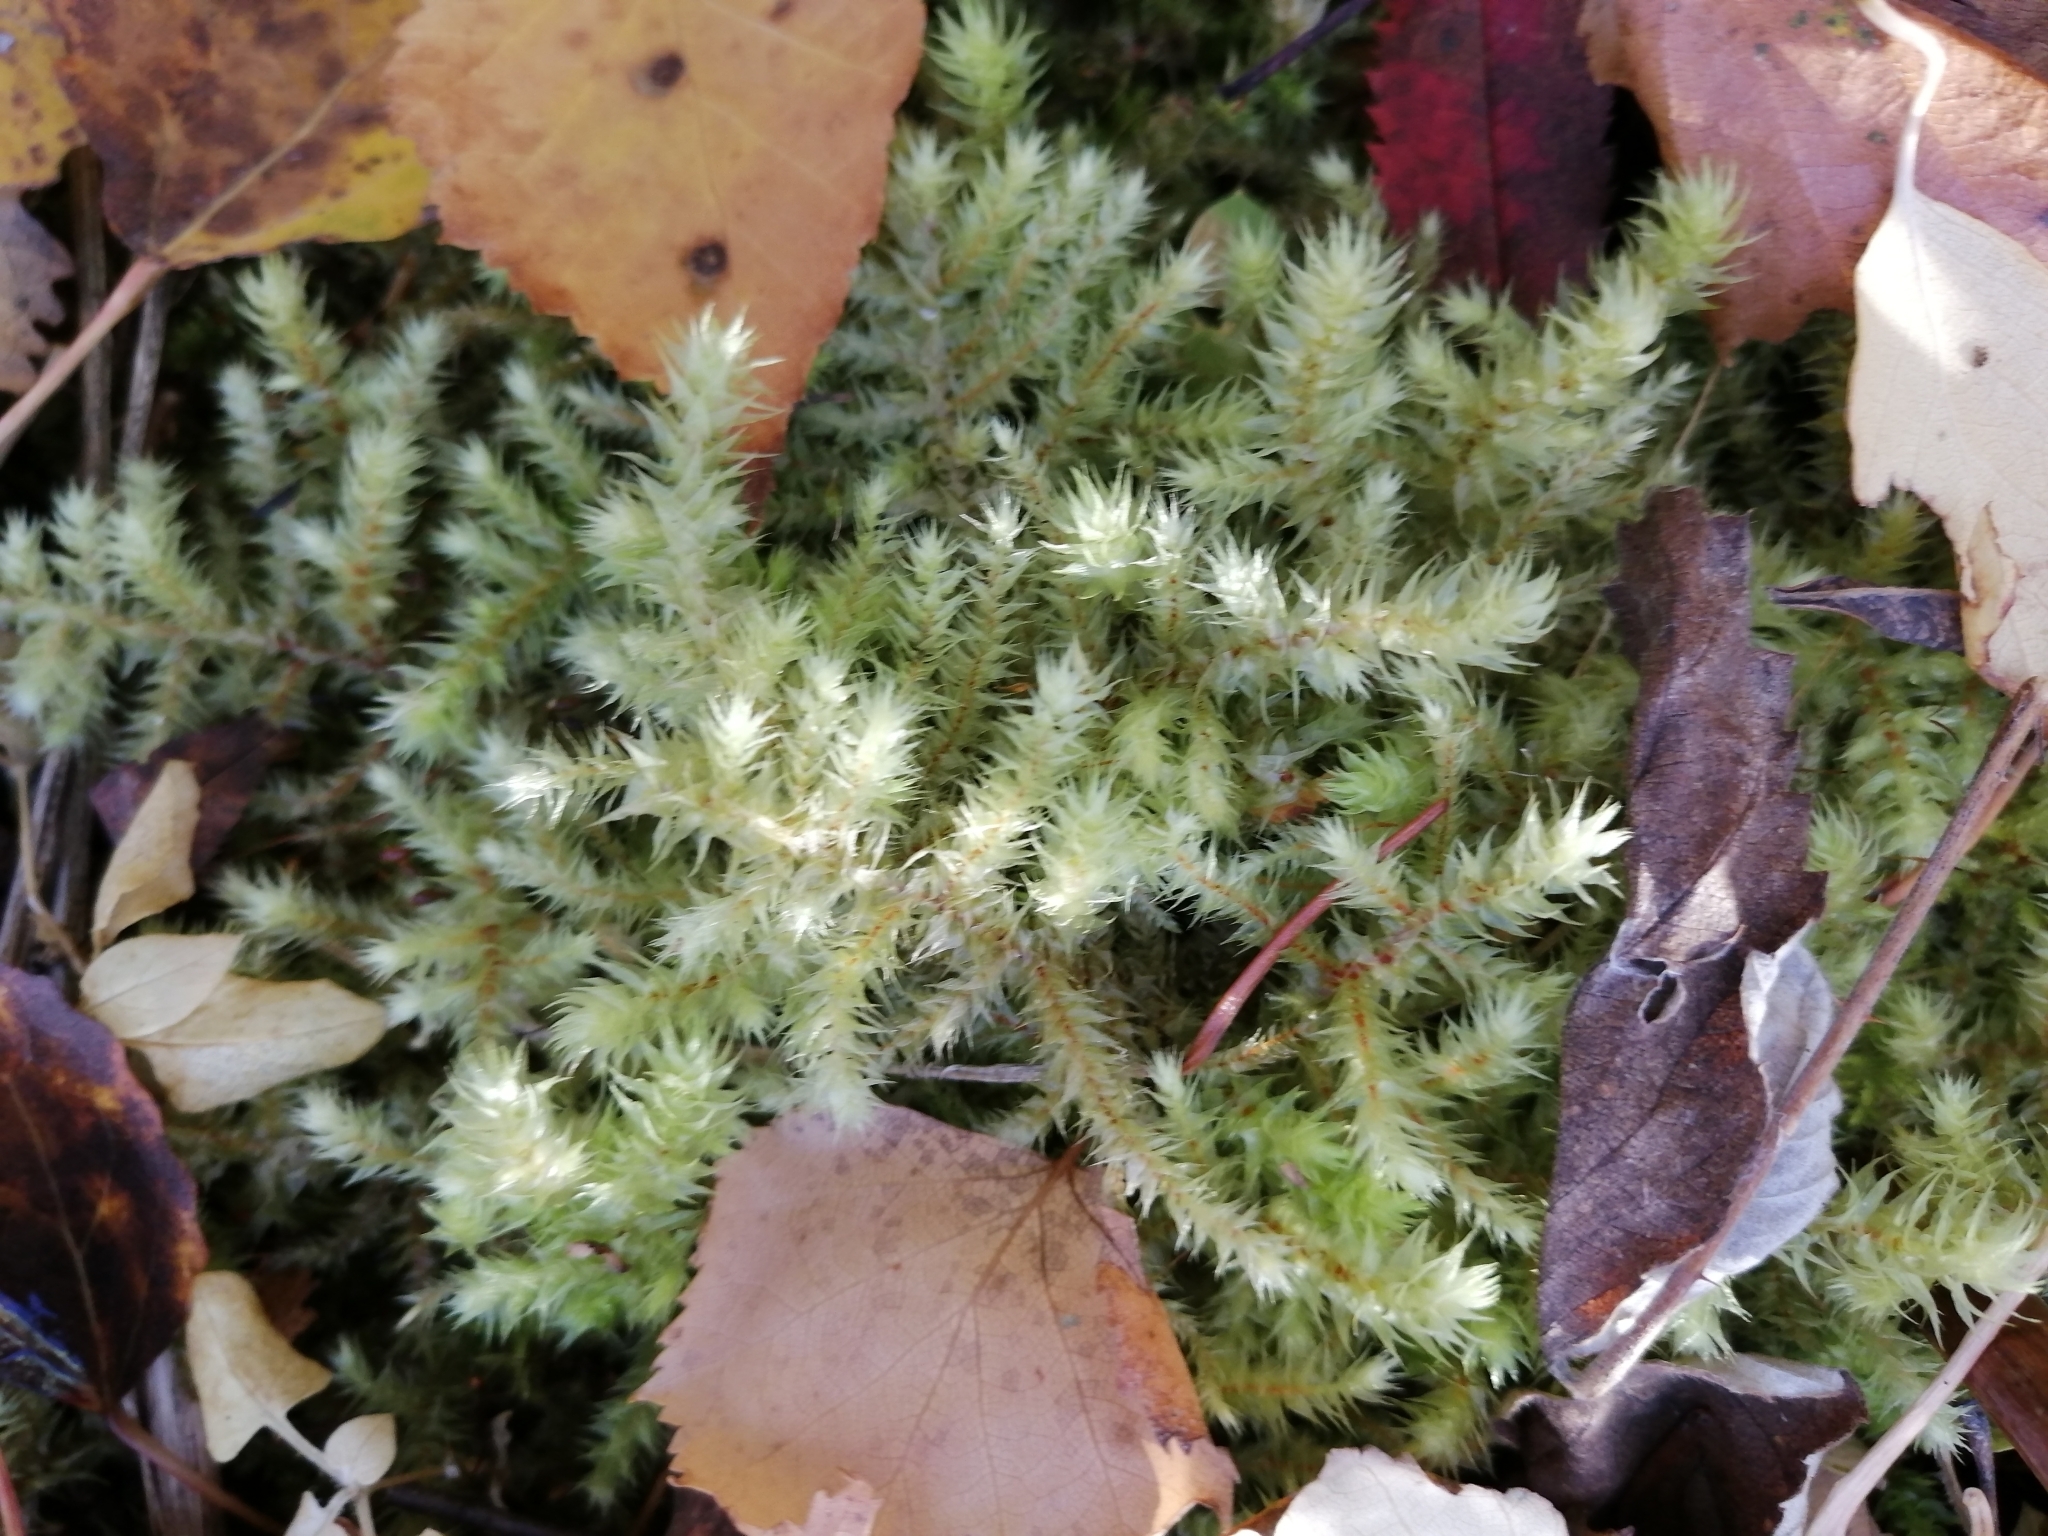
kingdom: Plantae
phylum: Bryophyta
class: Bryopsida
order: Hypnales
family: Hylocomiaceae
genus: Hylocomiadelphus
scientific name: Hylocomiadelphus triquetrus
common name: Rough goose neck moss
